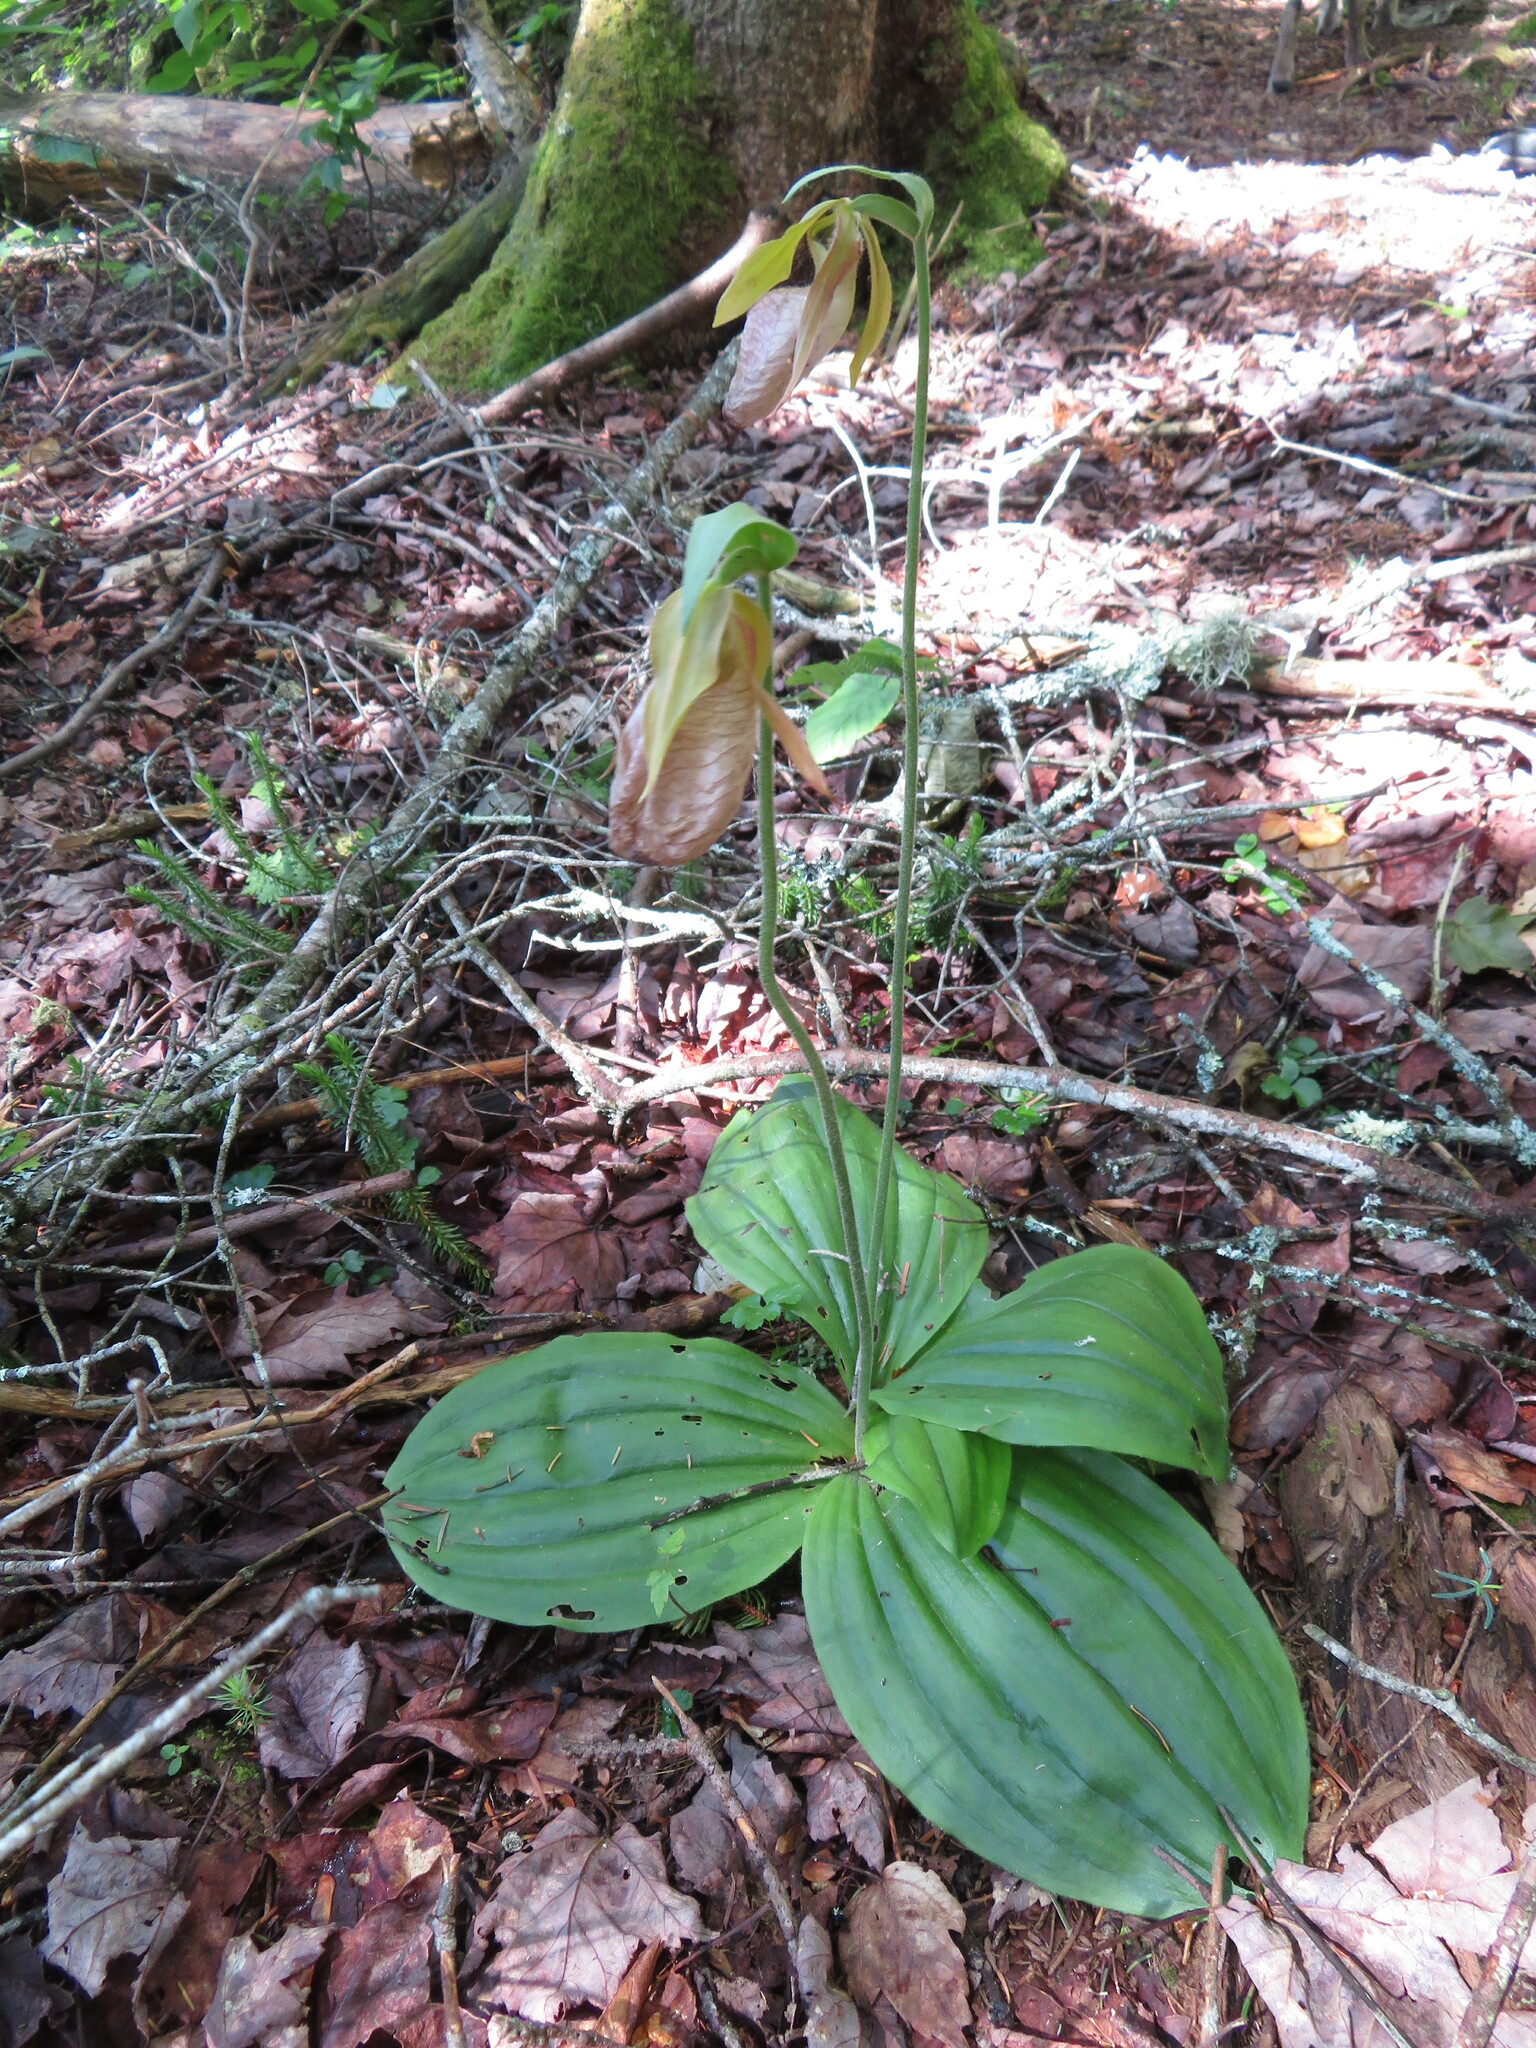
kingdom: Plantae
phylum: Tracheophyta
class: Liliopsida
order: Asparagales
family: Orchidaceae
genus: Cypripedium
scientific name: Cypripedium acaule
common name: Pink lady's-slipper
